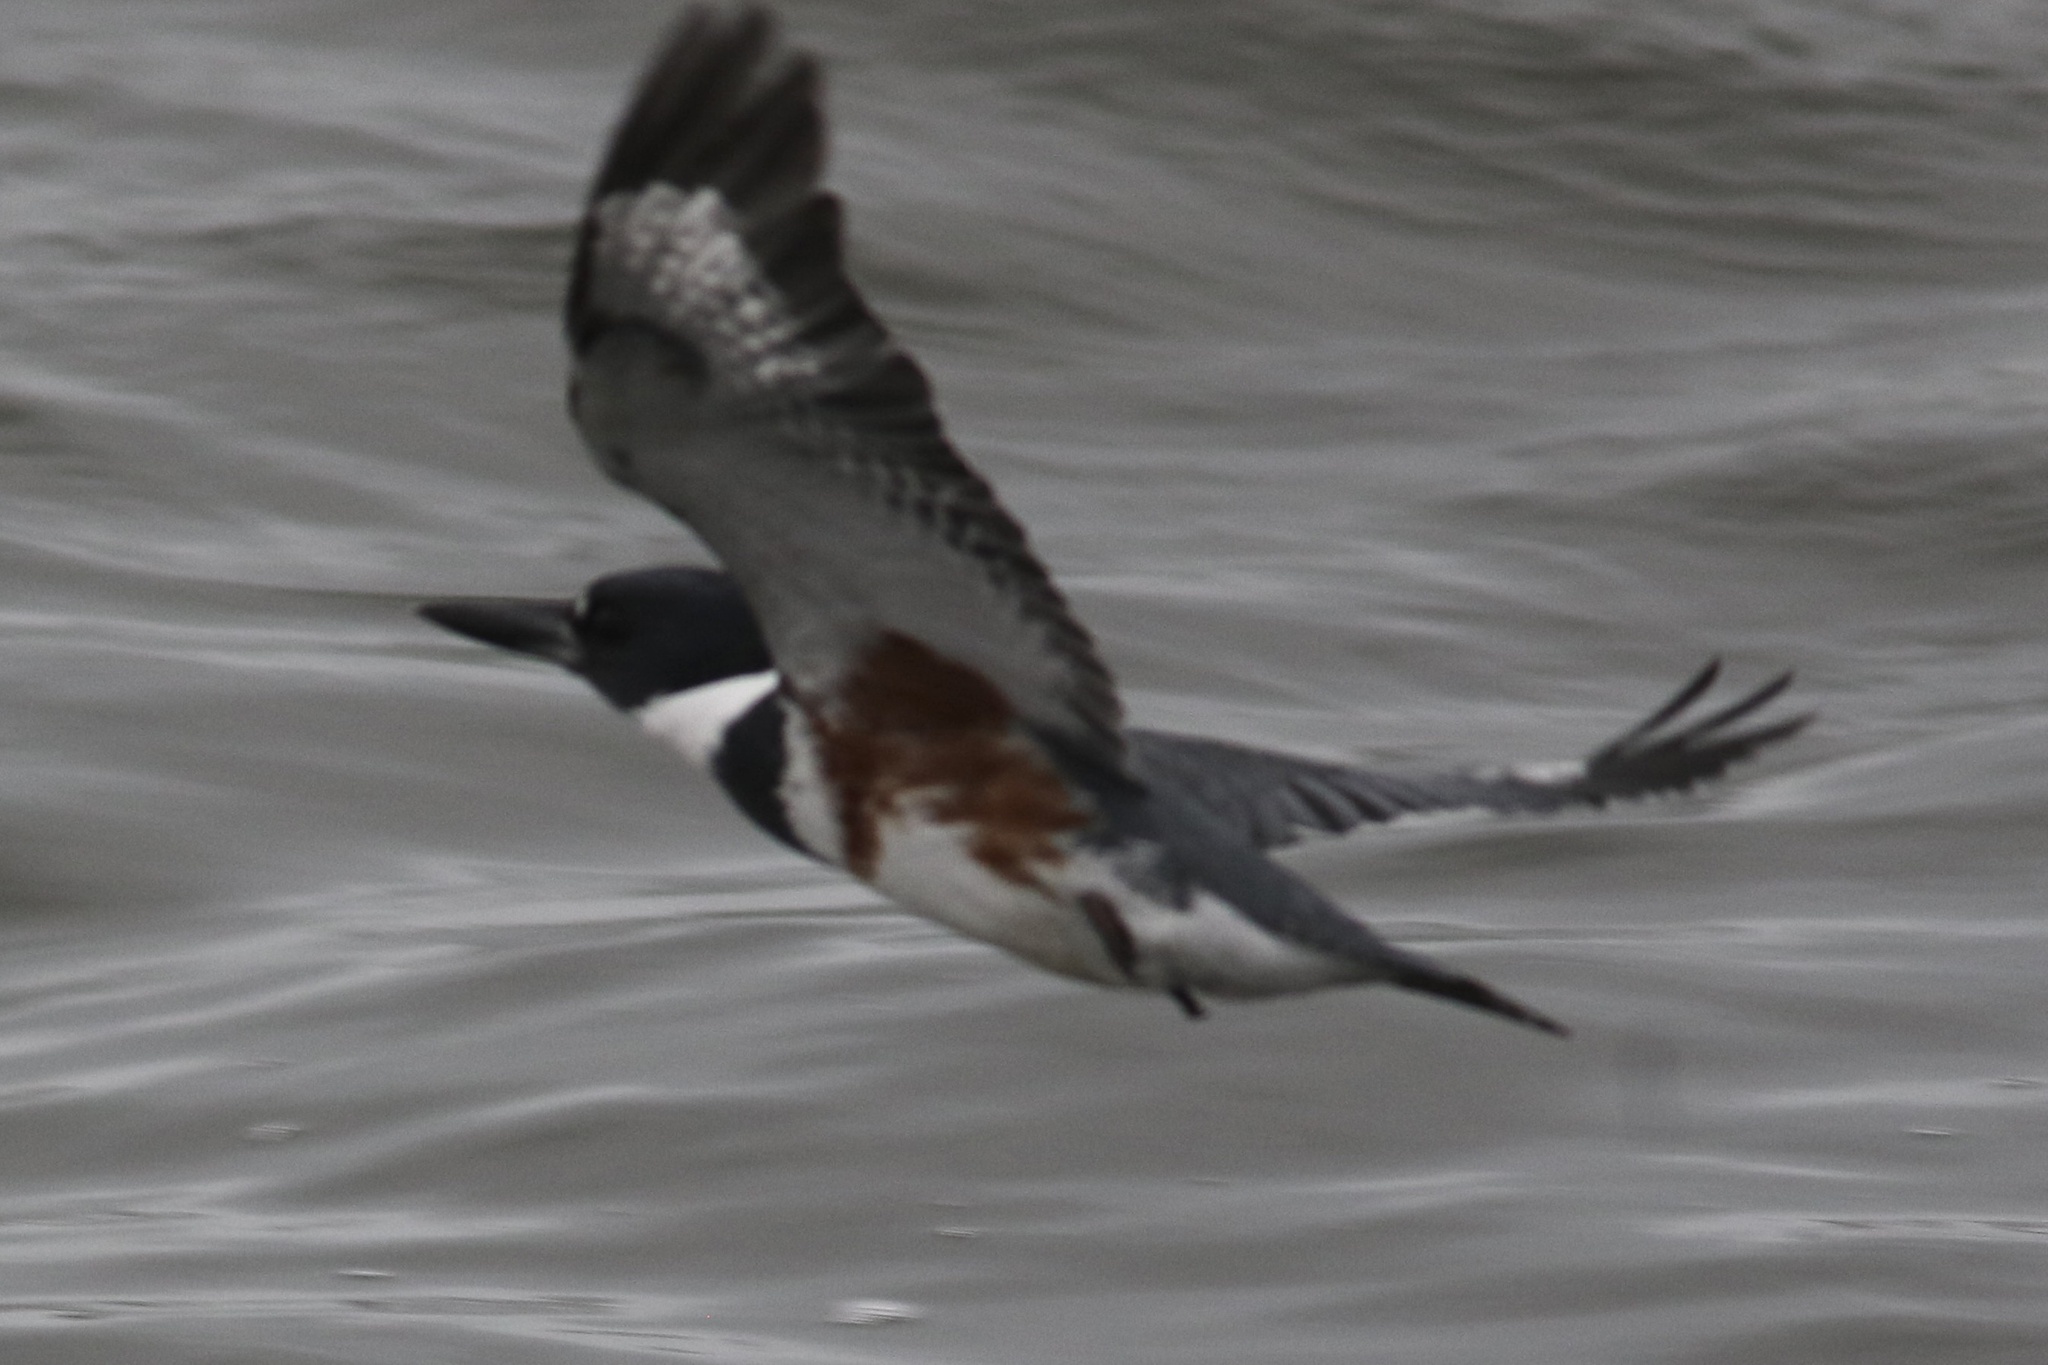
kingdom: Animalia
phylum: Chordata
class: Aves
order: Coraciiformes
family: Alcedinidae
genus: Megaceryle
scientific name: Megaceryle alcyon
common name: Belted kingfisher
